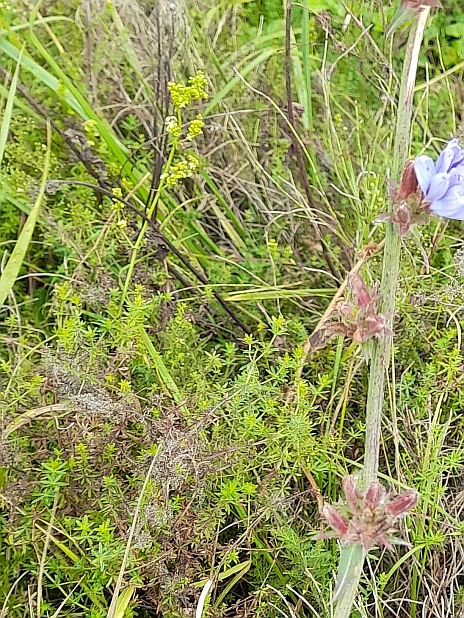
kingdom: Plantae
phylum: Tracheophyta
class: Magnoliopsida
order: Gentianales
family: Rubiaceae
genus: Galium
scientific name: Galium mollugo
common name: Hedge bedstraw
